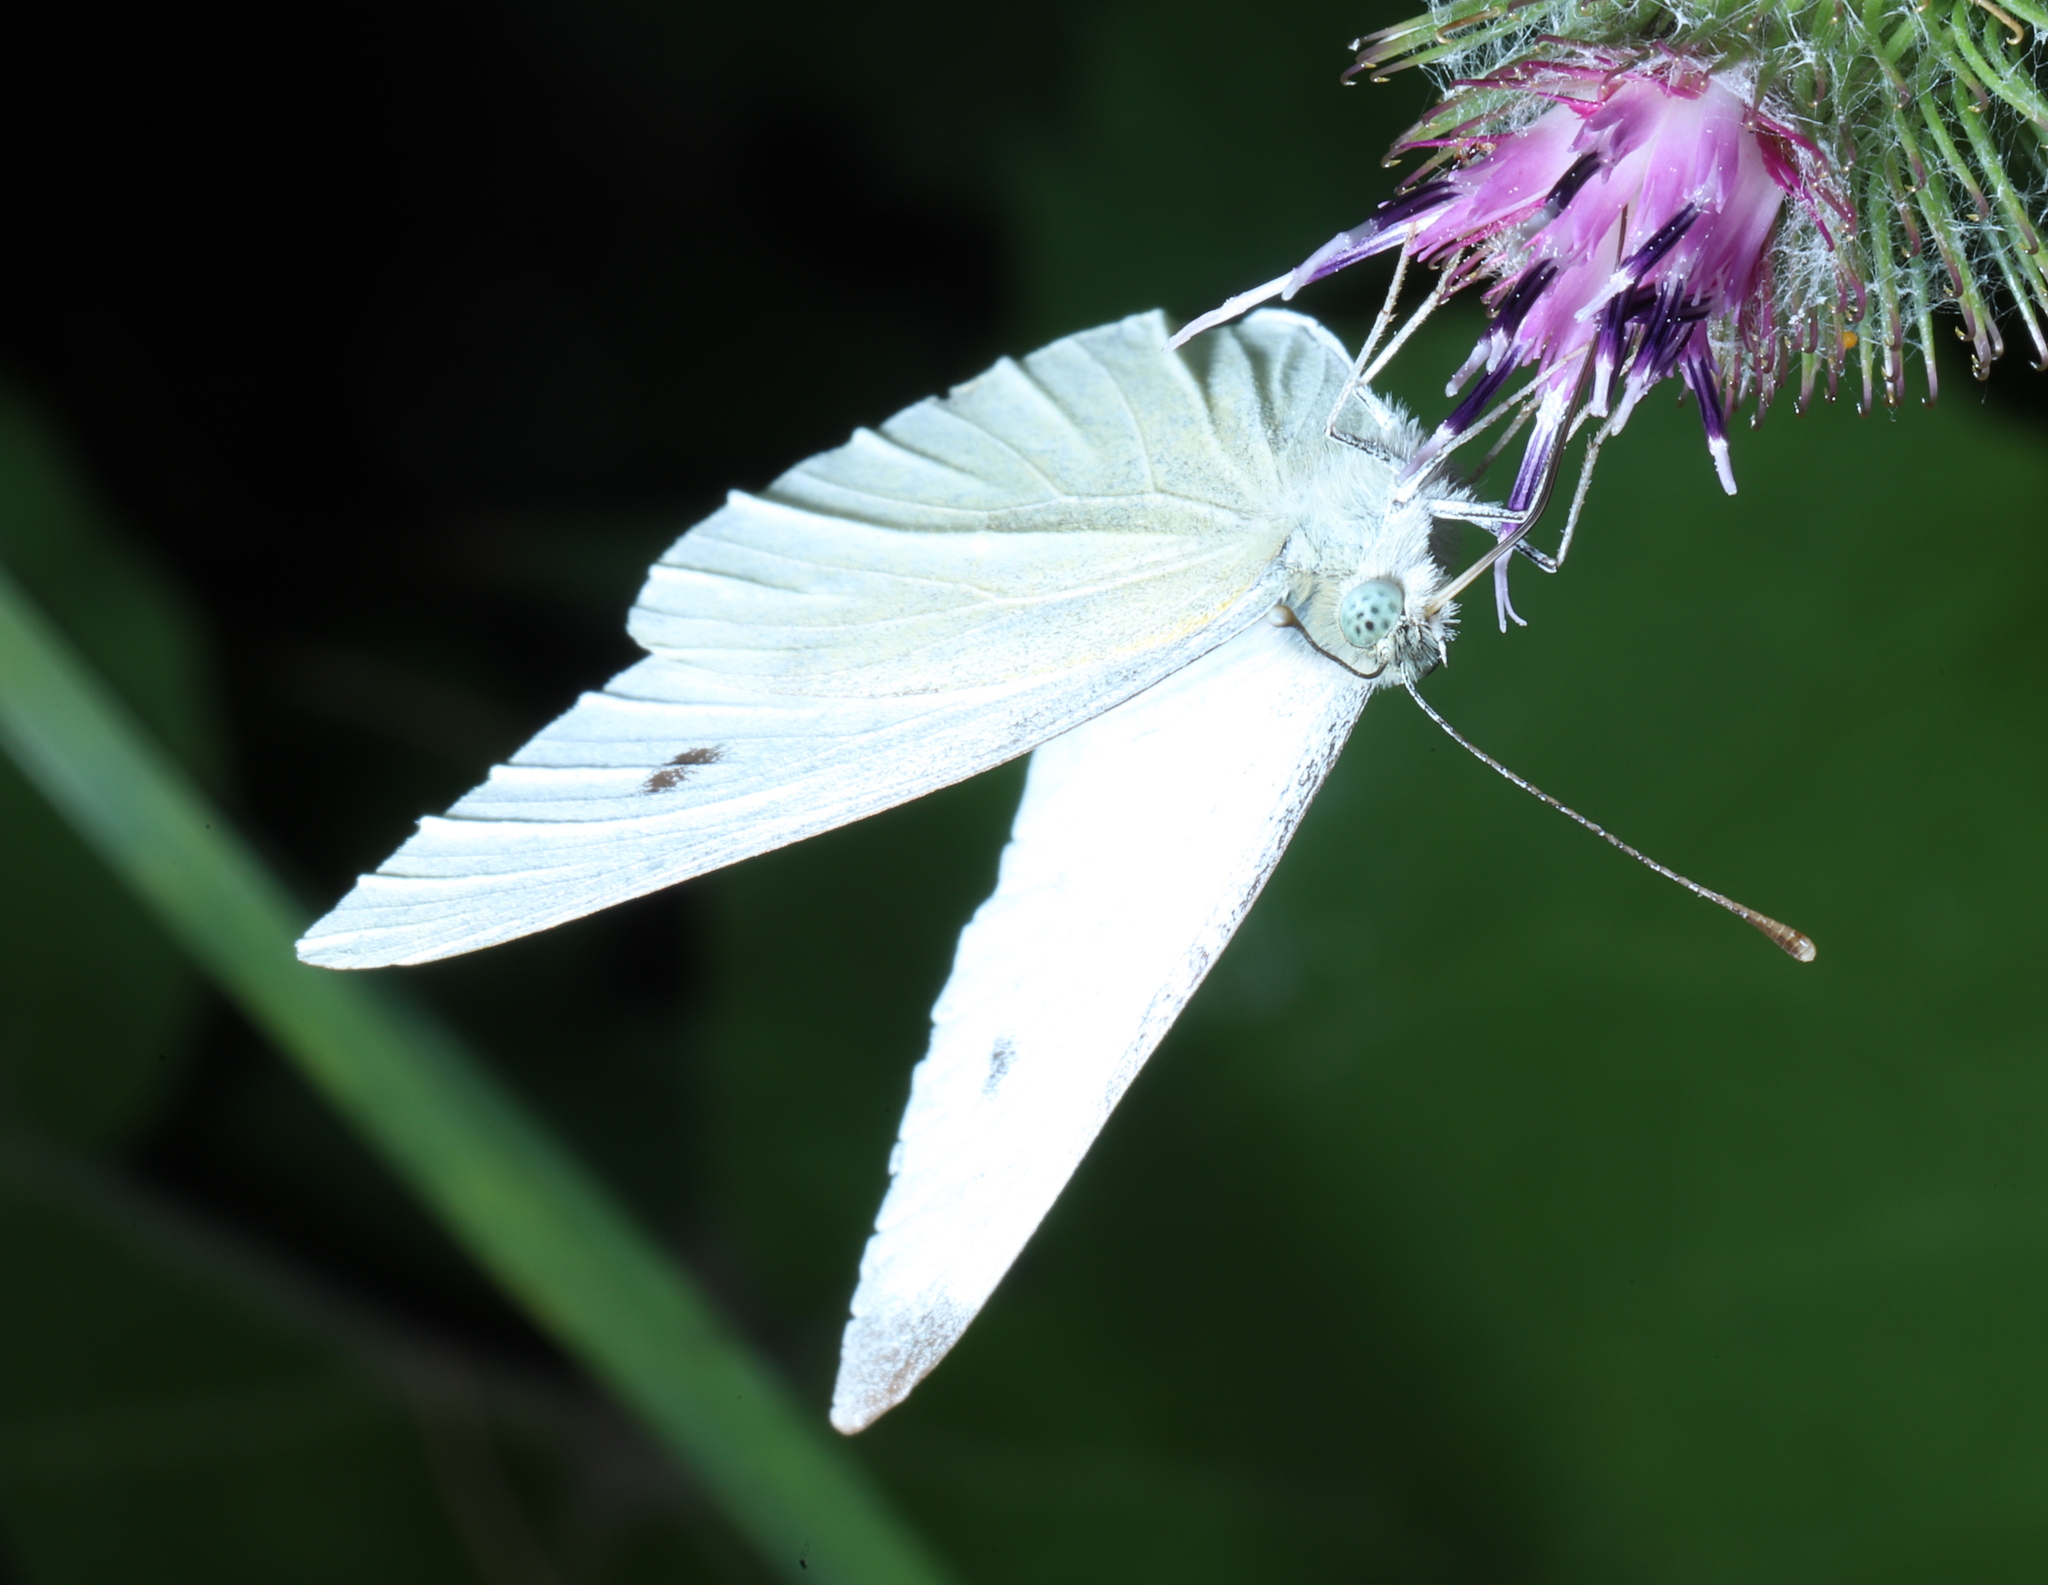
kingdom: Animalia
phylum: Arthropoda
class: Insecta
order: Lepidoptera
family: Pieridae
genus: Pieris
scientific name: Pieris rapae
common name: Small white
